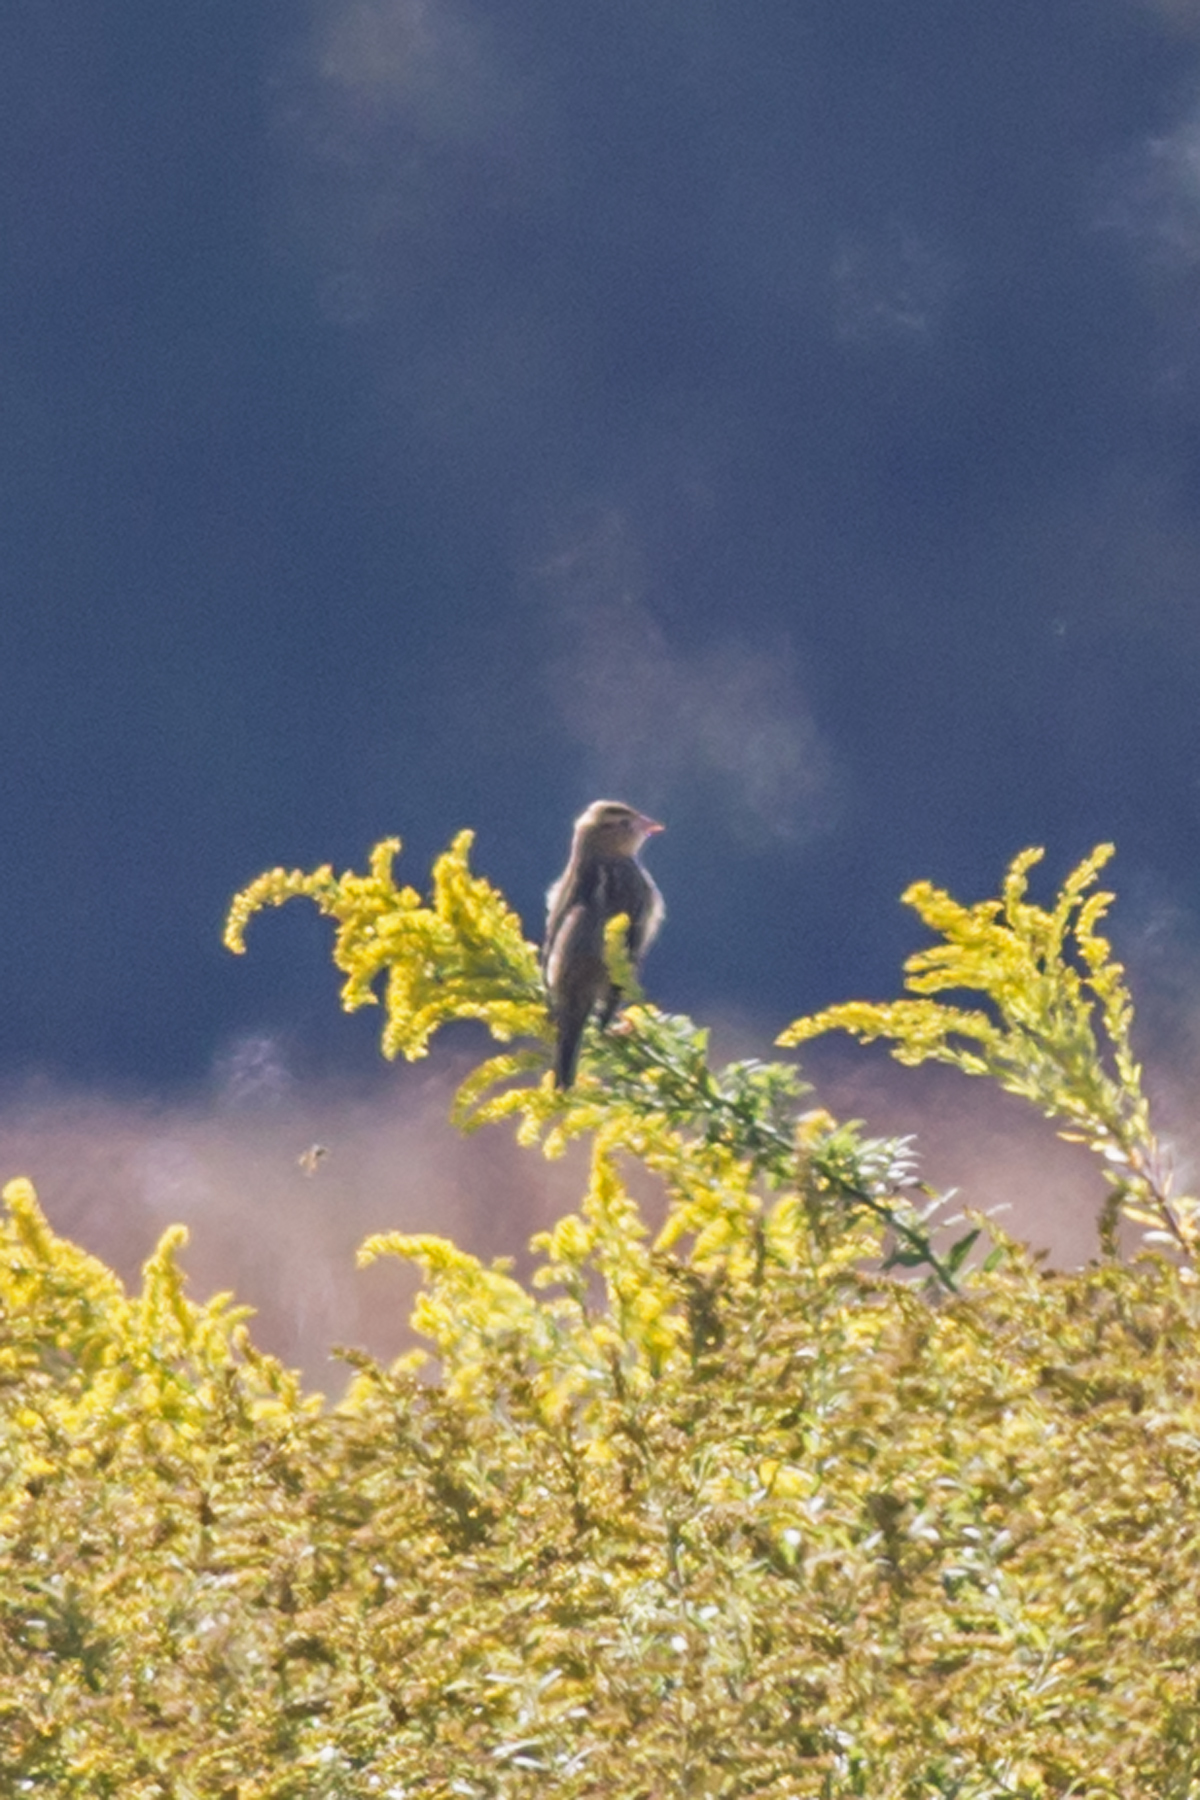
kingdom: Animalia
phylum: Chordata
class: Aves
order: Passeriformes
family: Icteridae
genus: Dolichonyx
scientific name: Dolichonyx oryzivorus
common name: Bobolink
